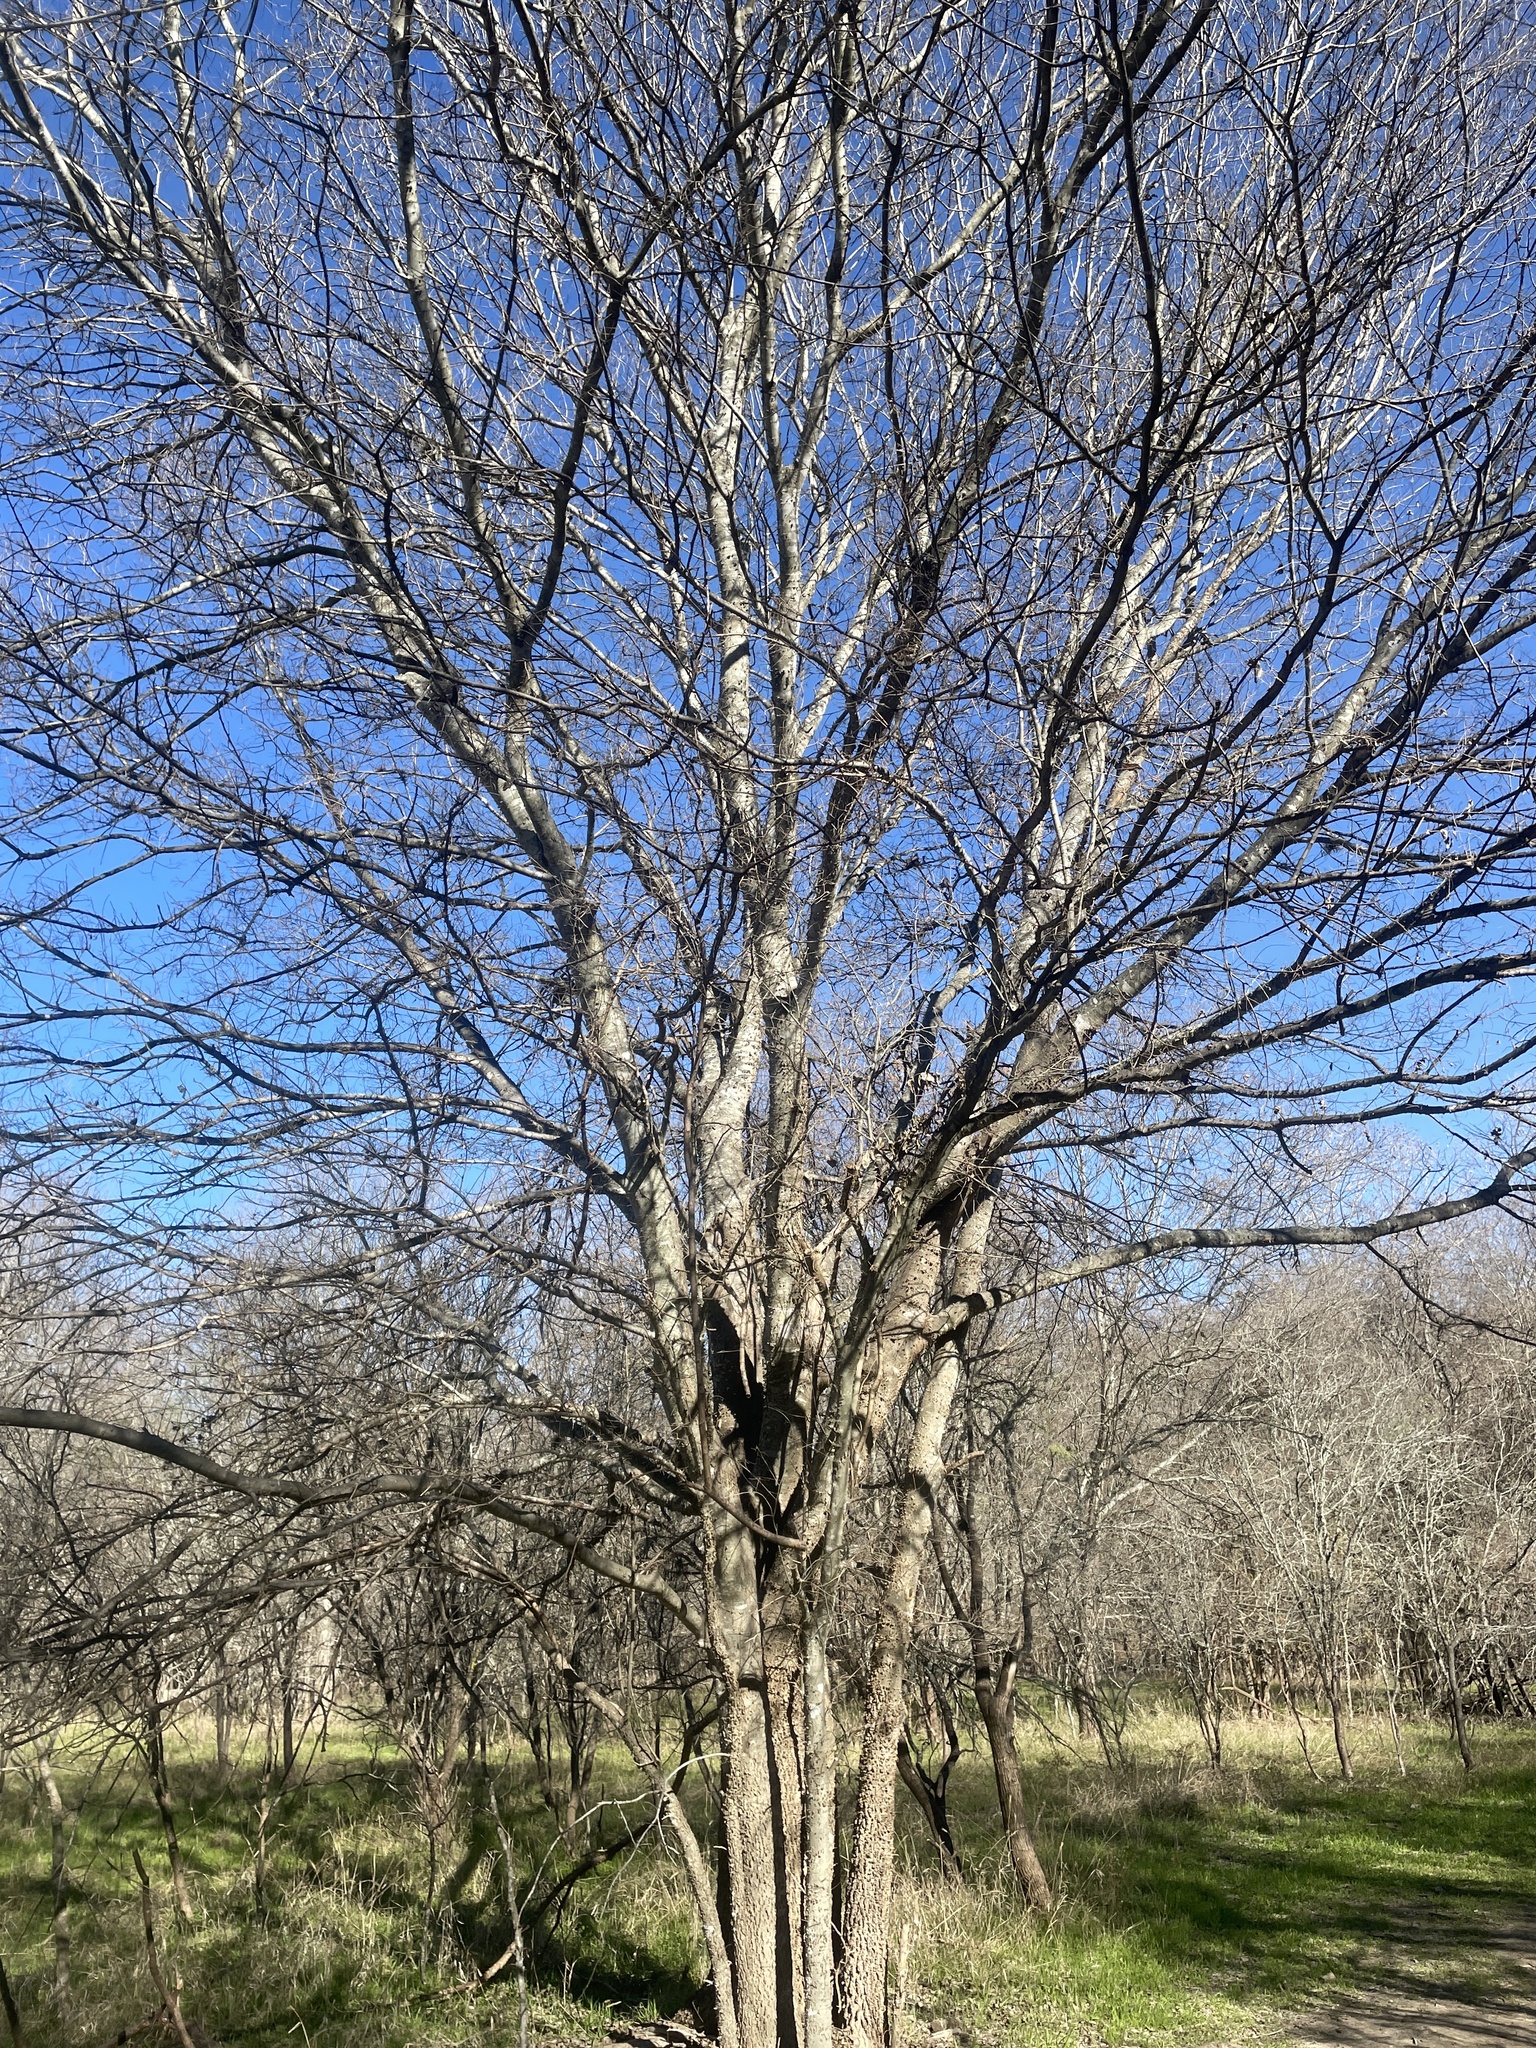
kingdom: Plantae
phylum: Tracheophyta
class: Magnoliopsida
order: Rosales
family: Cannabaceae
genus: Celtis
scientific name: Celtis laevigata
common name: Sugarberry
